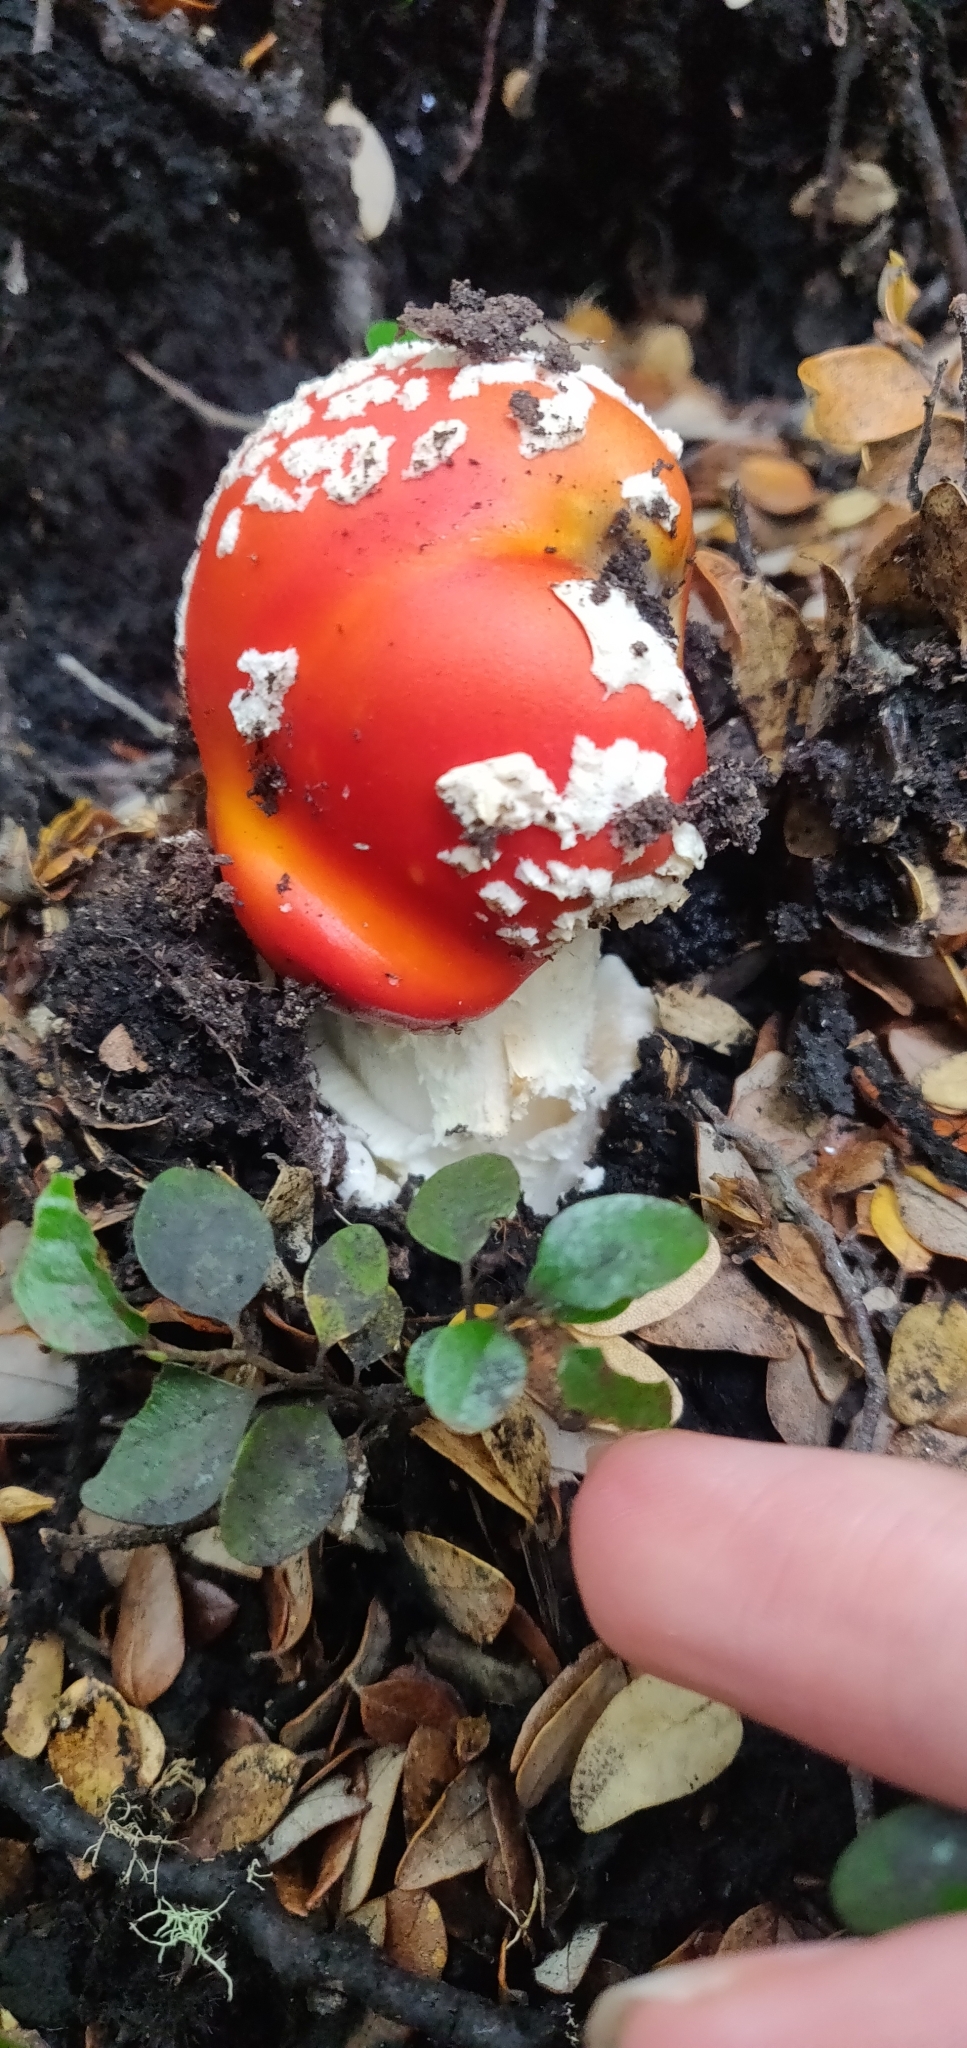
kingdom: Fungi
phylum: Basidiomycota
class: Agaricomycetes
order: Agaricales
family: Amanitaceae
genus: Amanita
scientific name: Amanita muscaria
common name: Fly agaric
